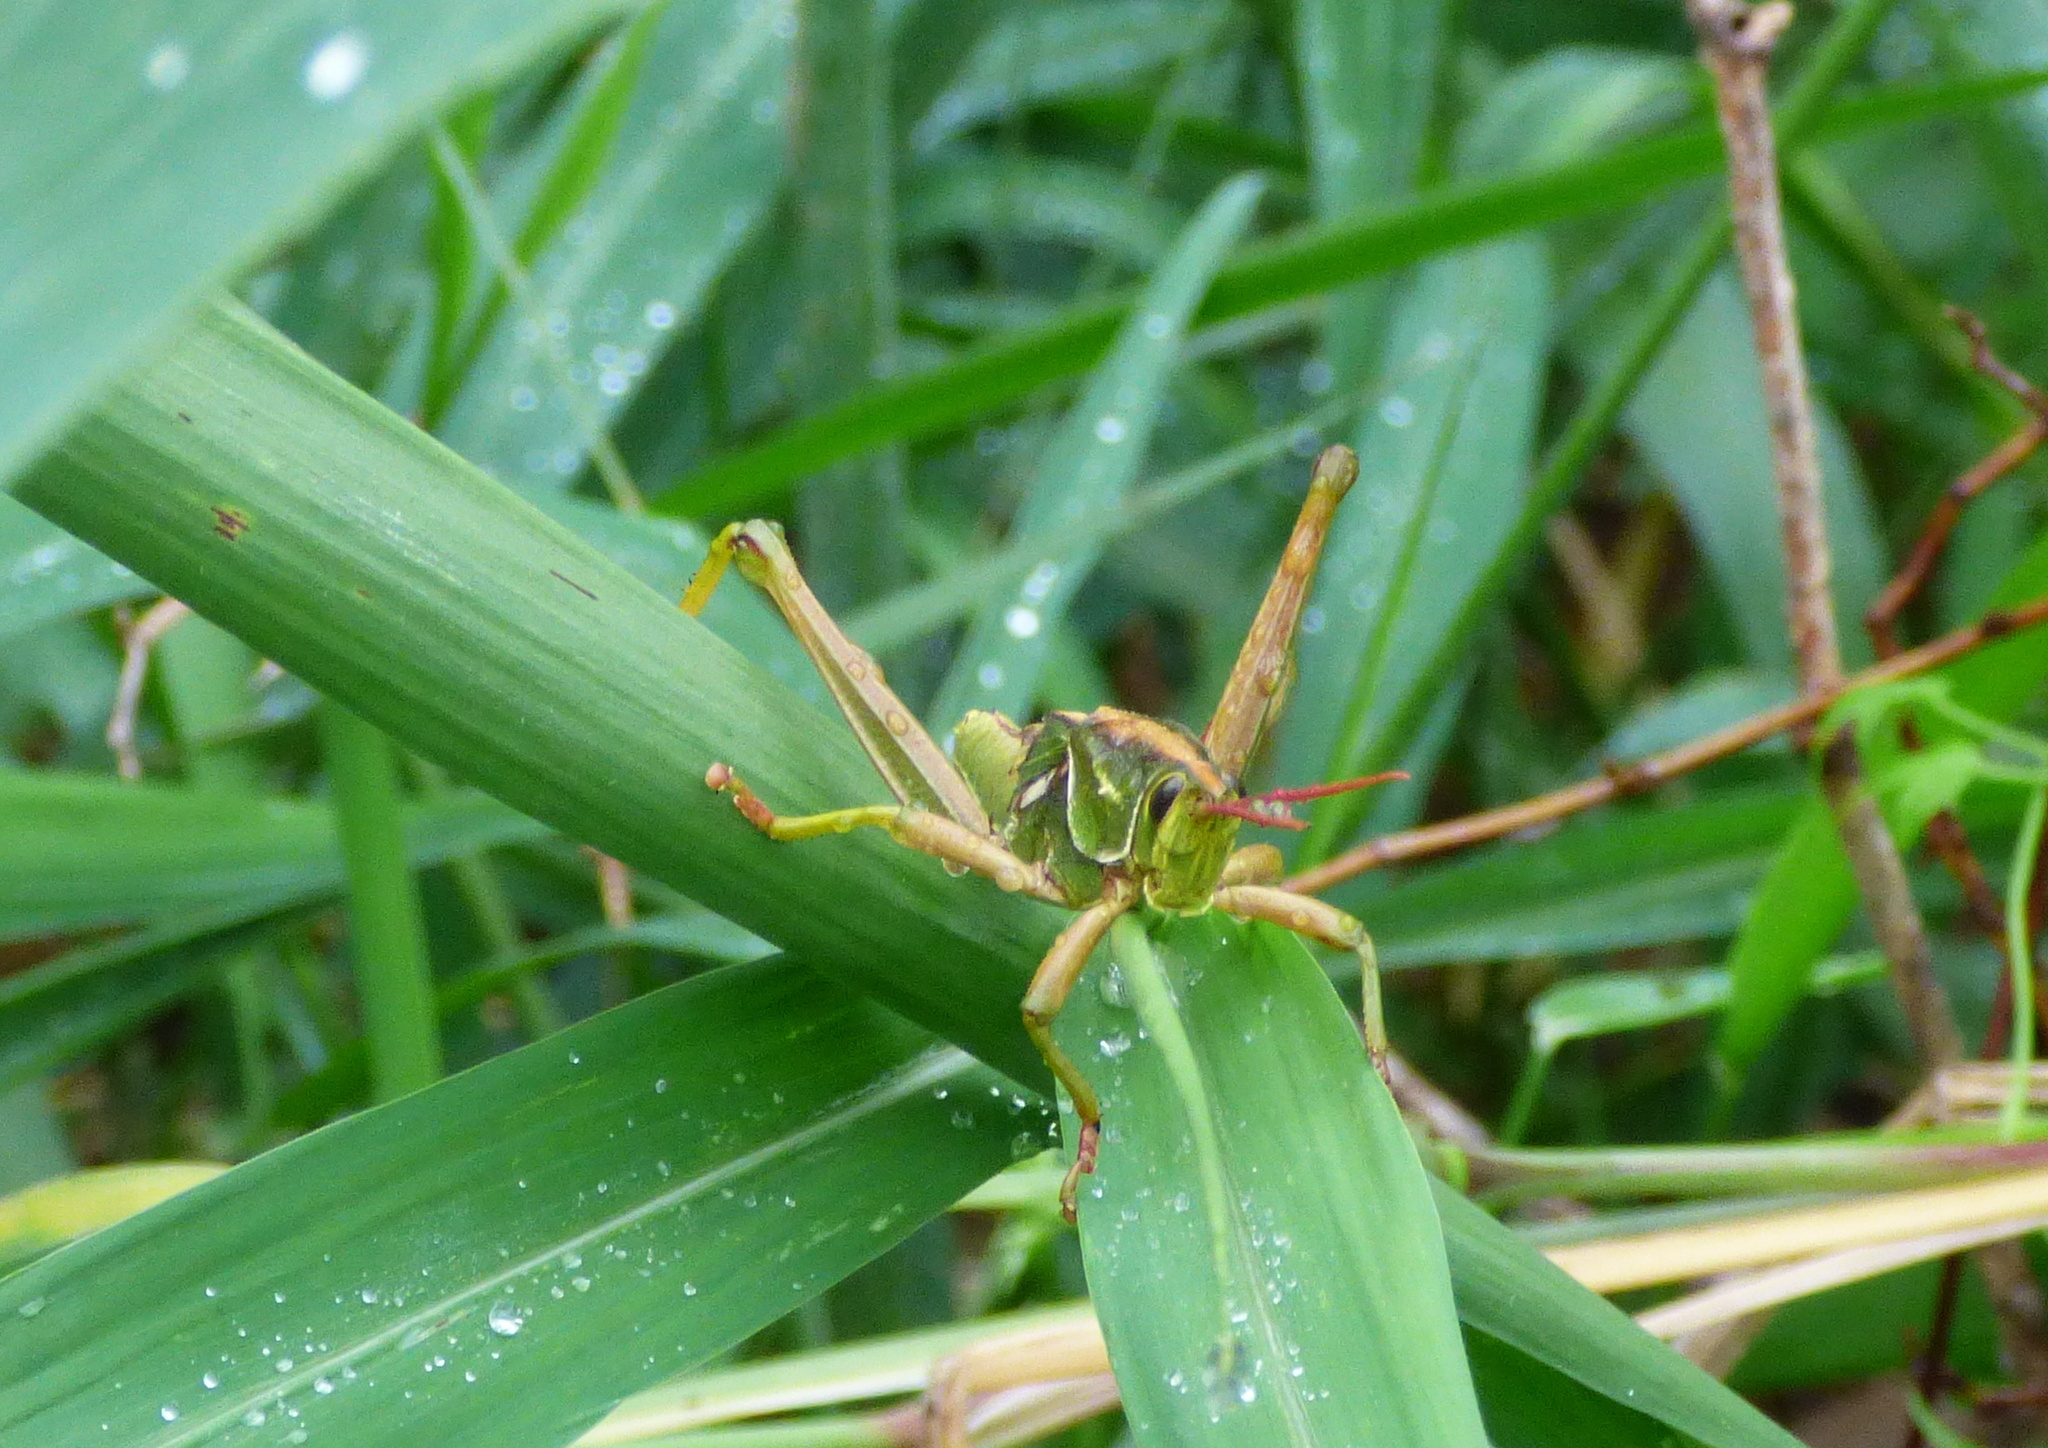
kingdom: Animalia
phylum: Arthropoda
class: Insecta
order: Orthoptera
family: Romaleidae
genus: Staleochlora
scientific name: Staleochlora viridicata
